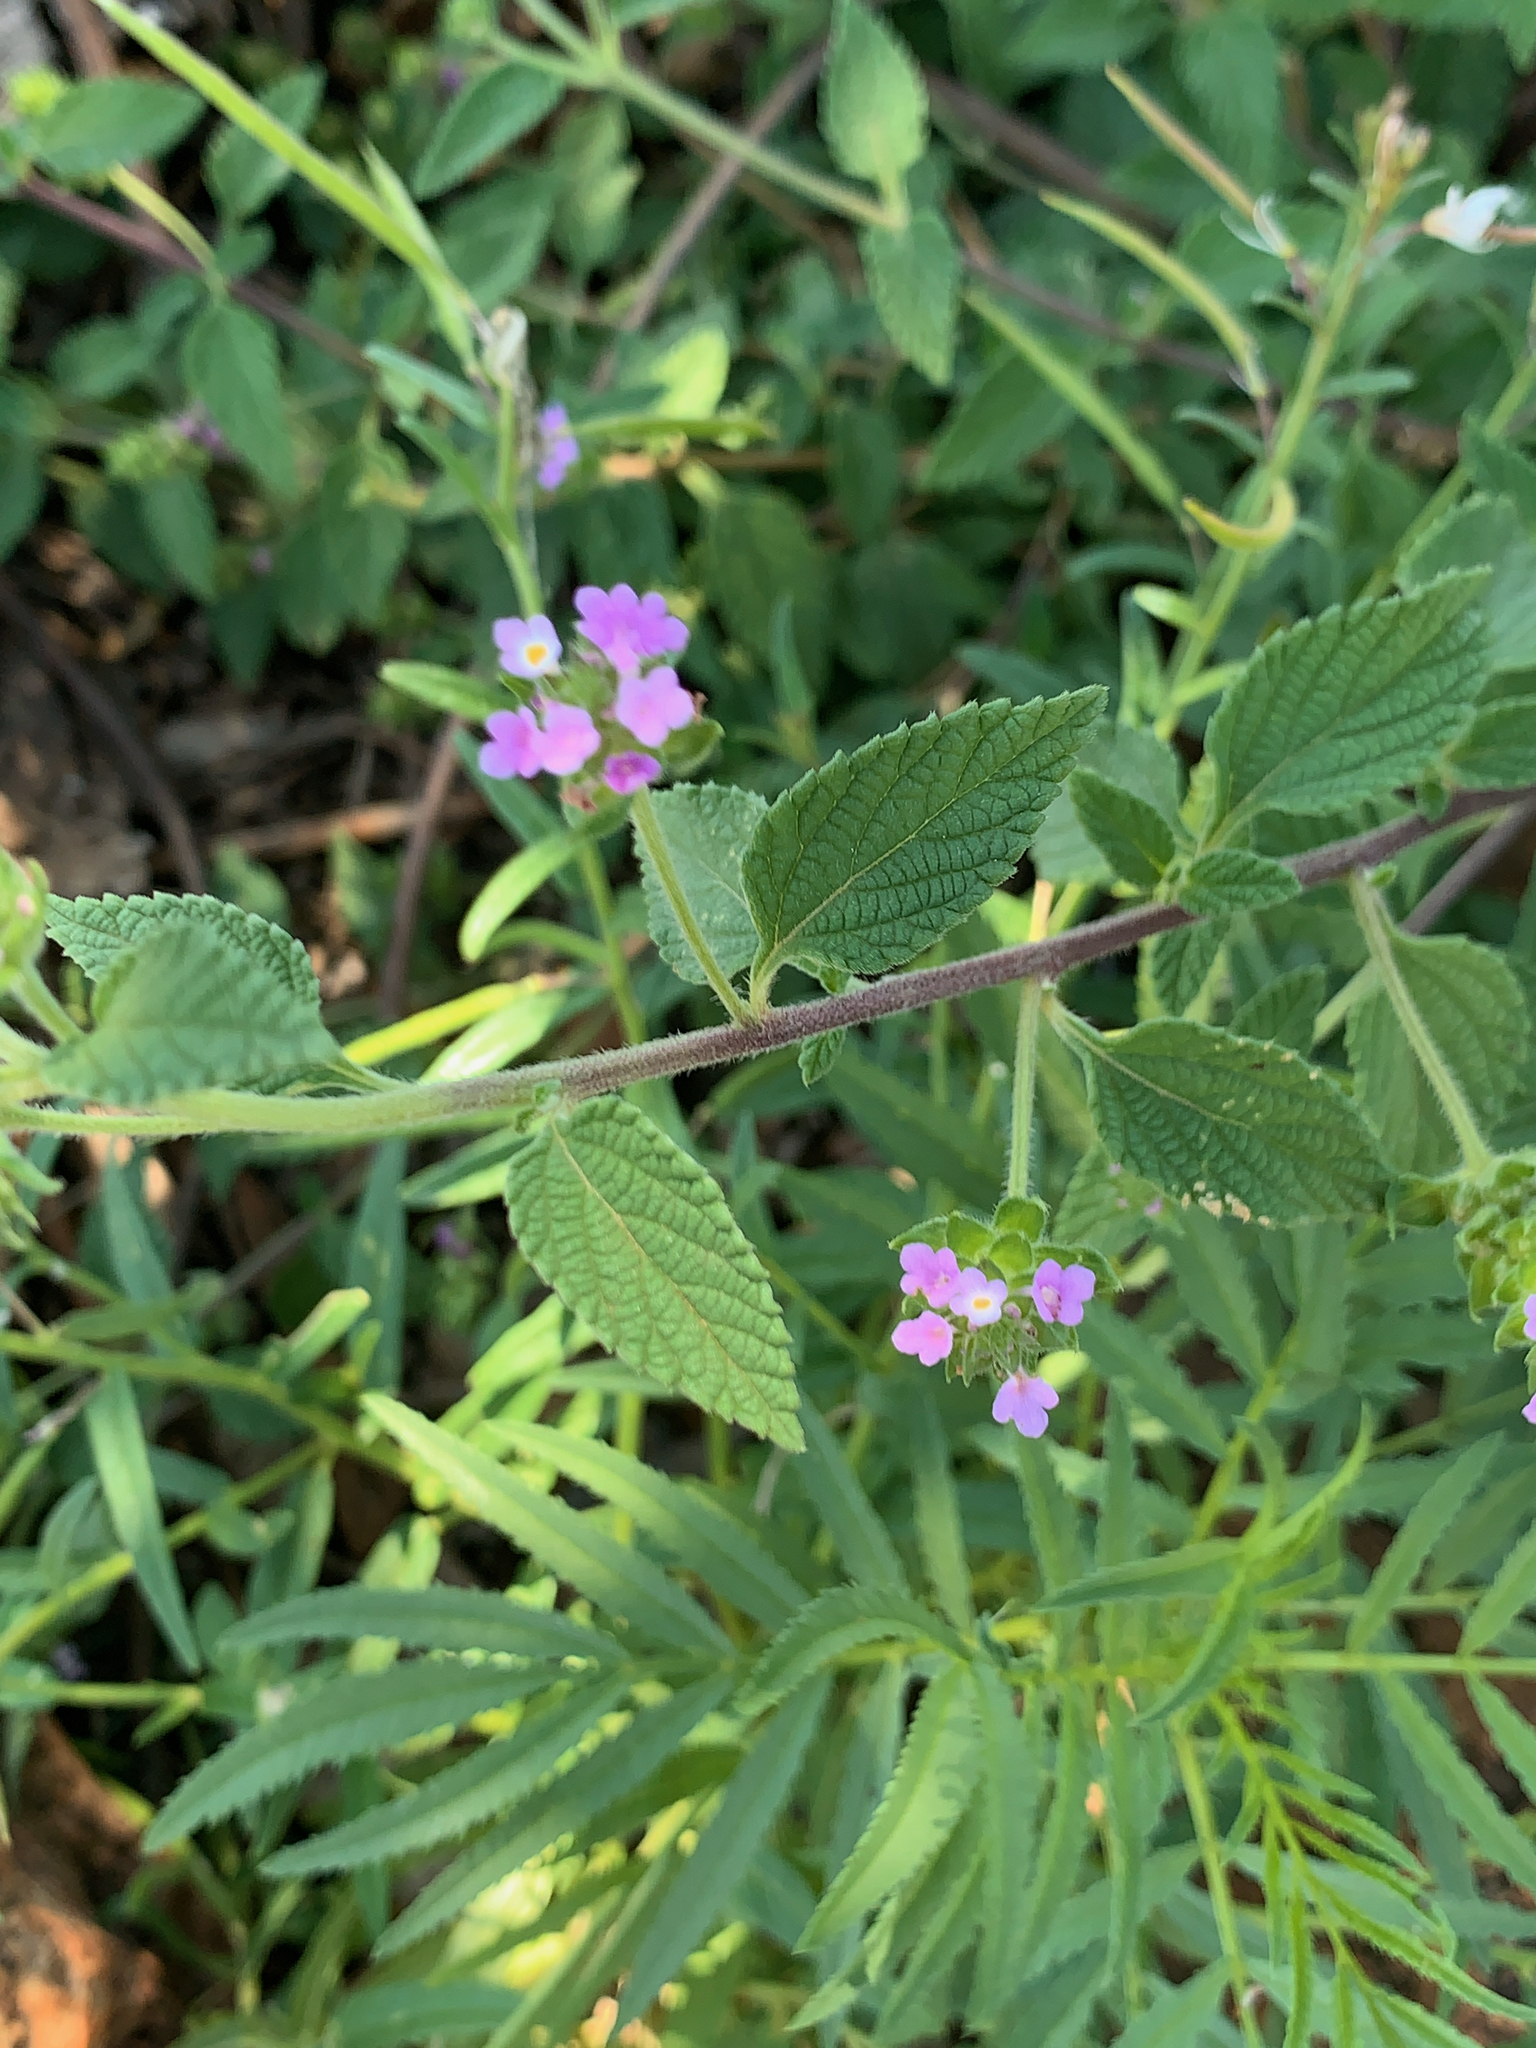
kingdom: Plantae
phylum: Tracheophyta
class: Magnoliopsida
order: Lamiales
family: Verbenaceae
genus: Lantana
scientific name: Lantana rugosa
